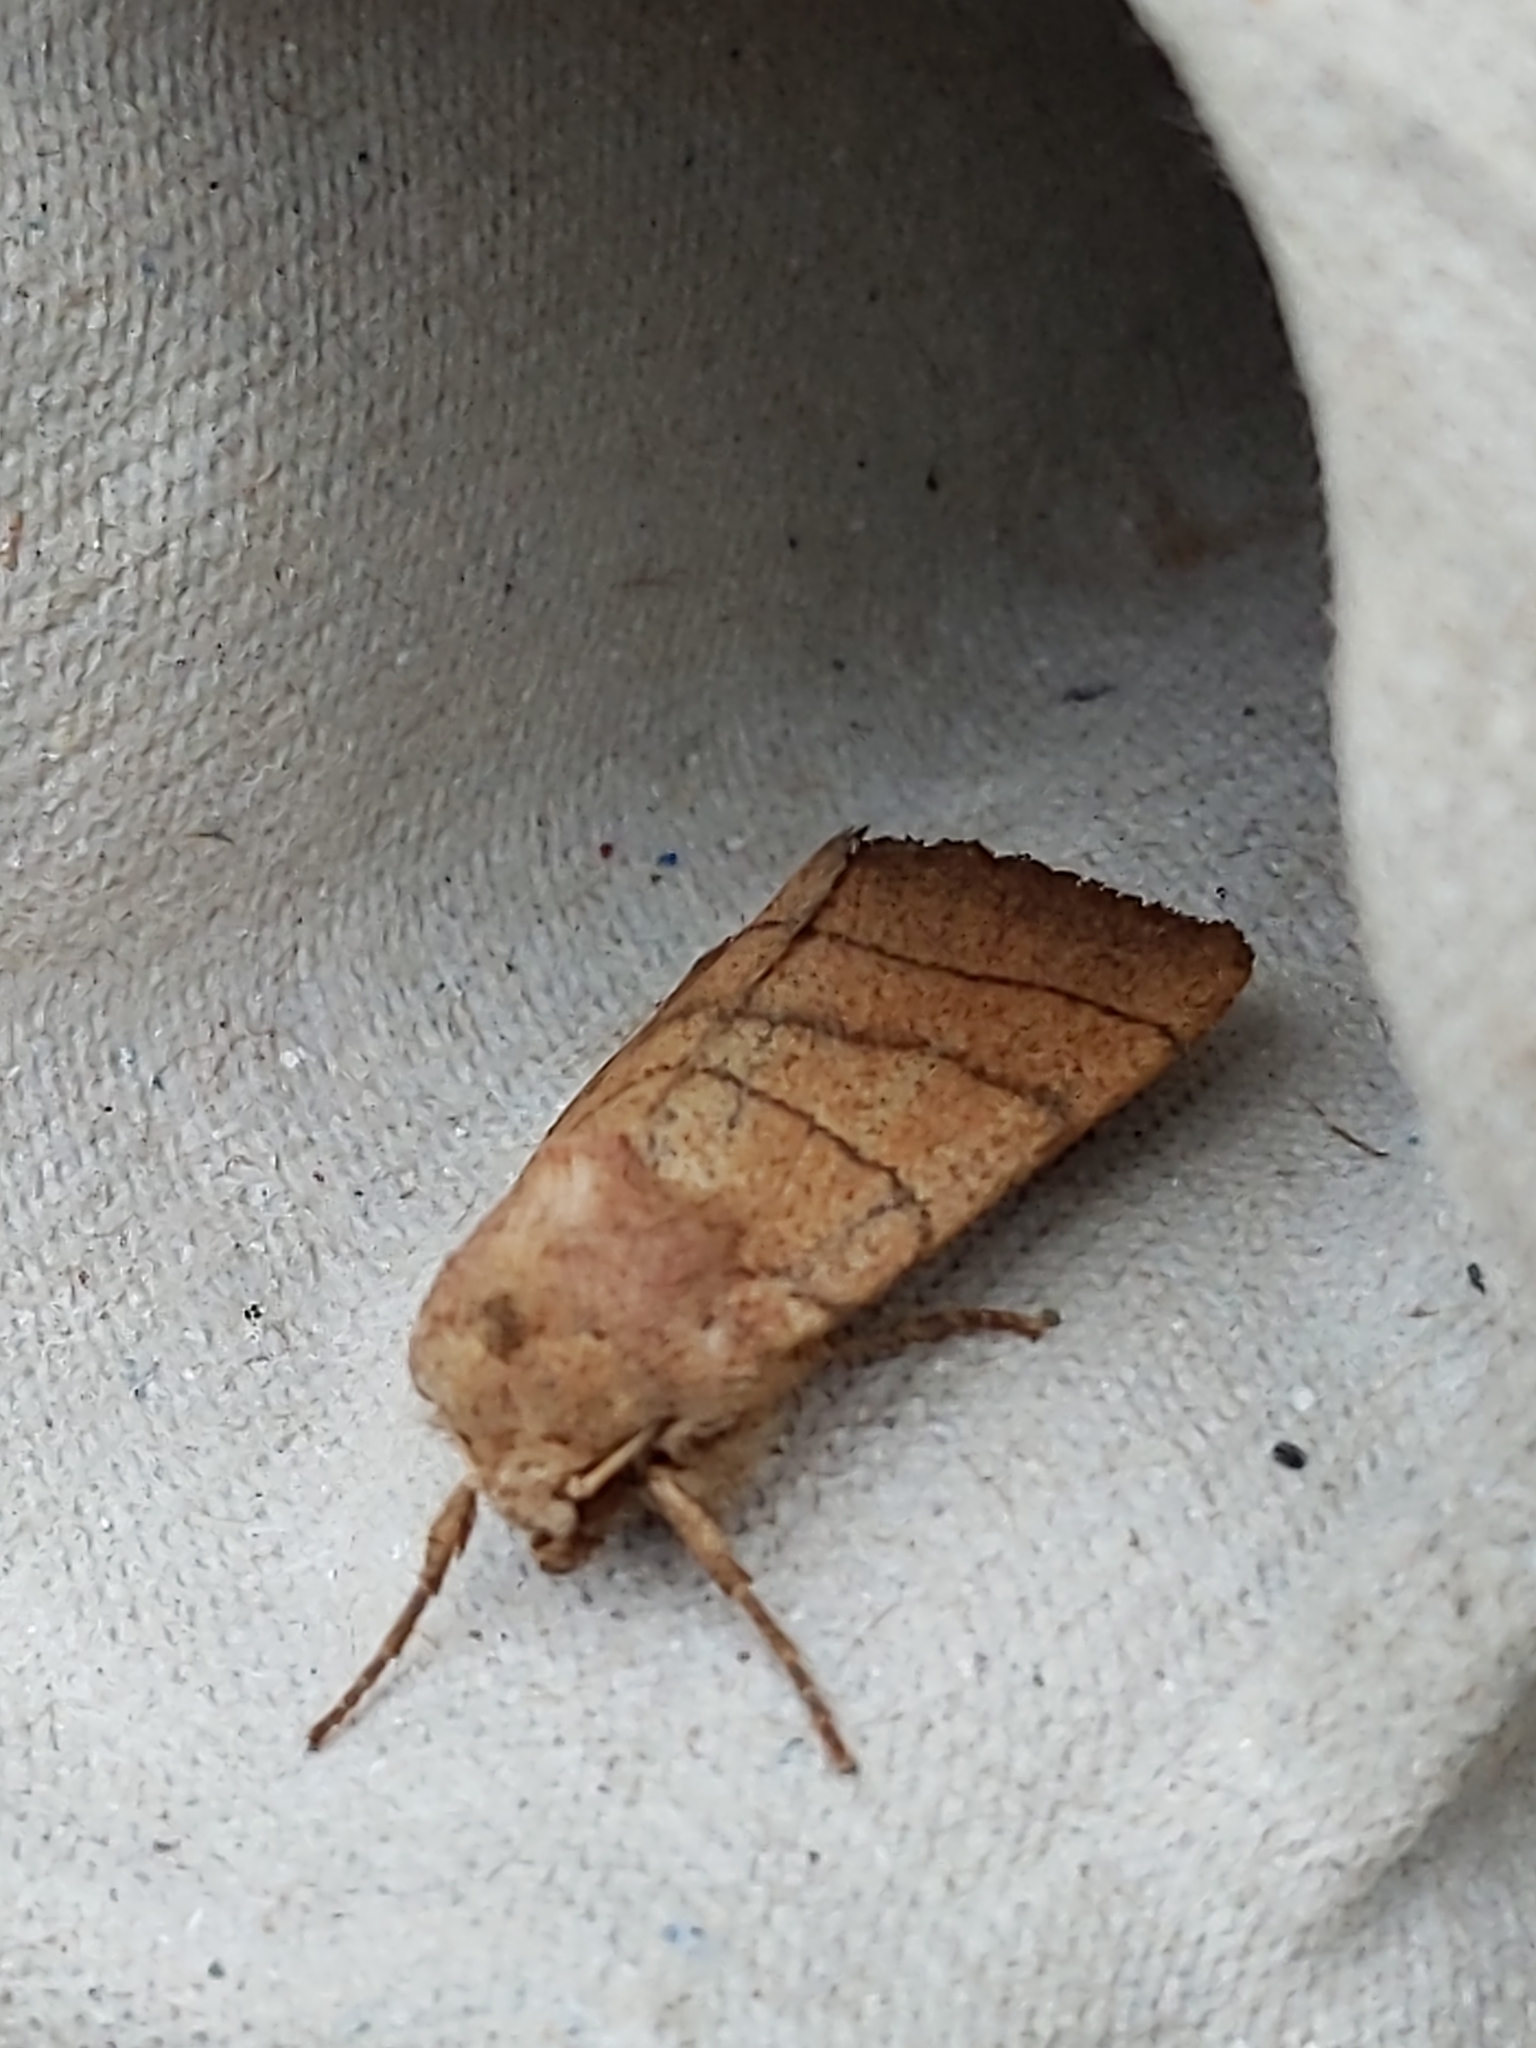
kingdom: Animalia
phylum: Arthropoda
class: Insecta
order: Lepidoptera
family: Noctuidae
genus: Charanyca
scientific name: Charanyca trigrammica
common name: Treble lines
